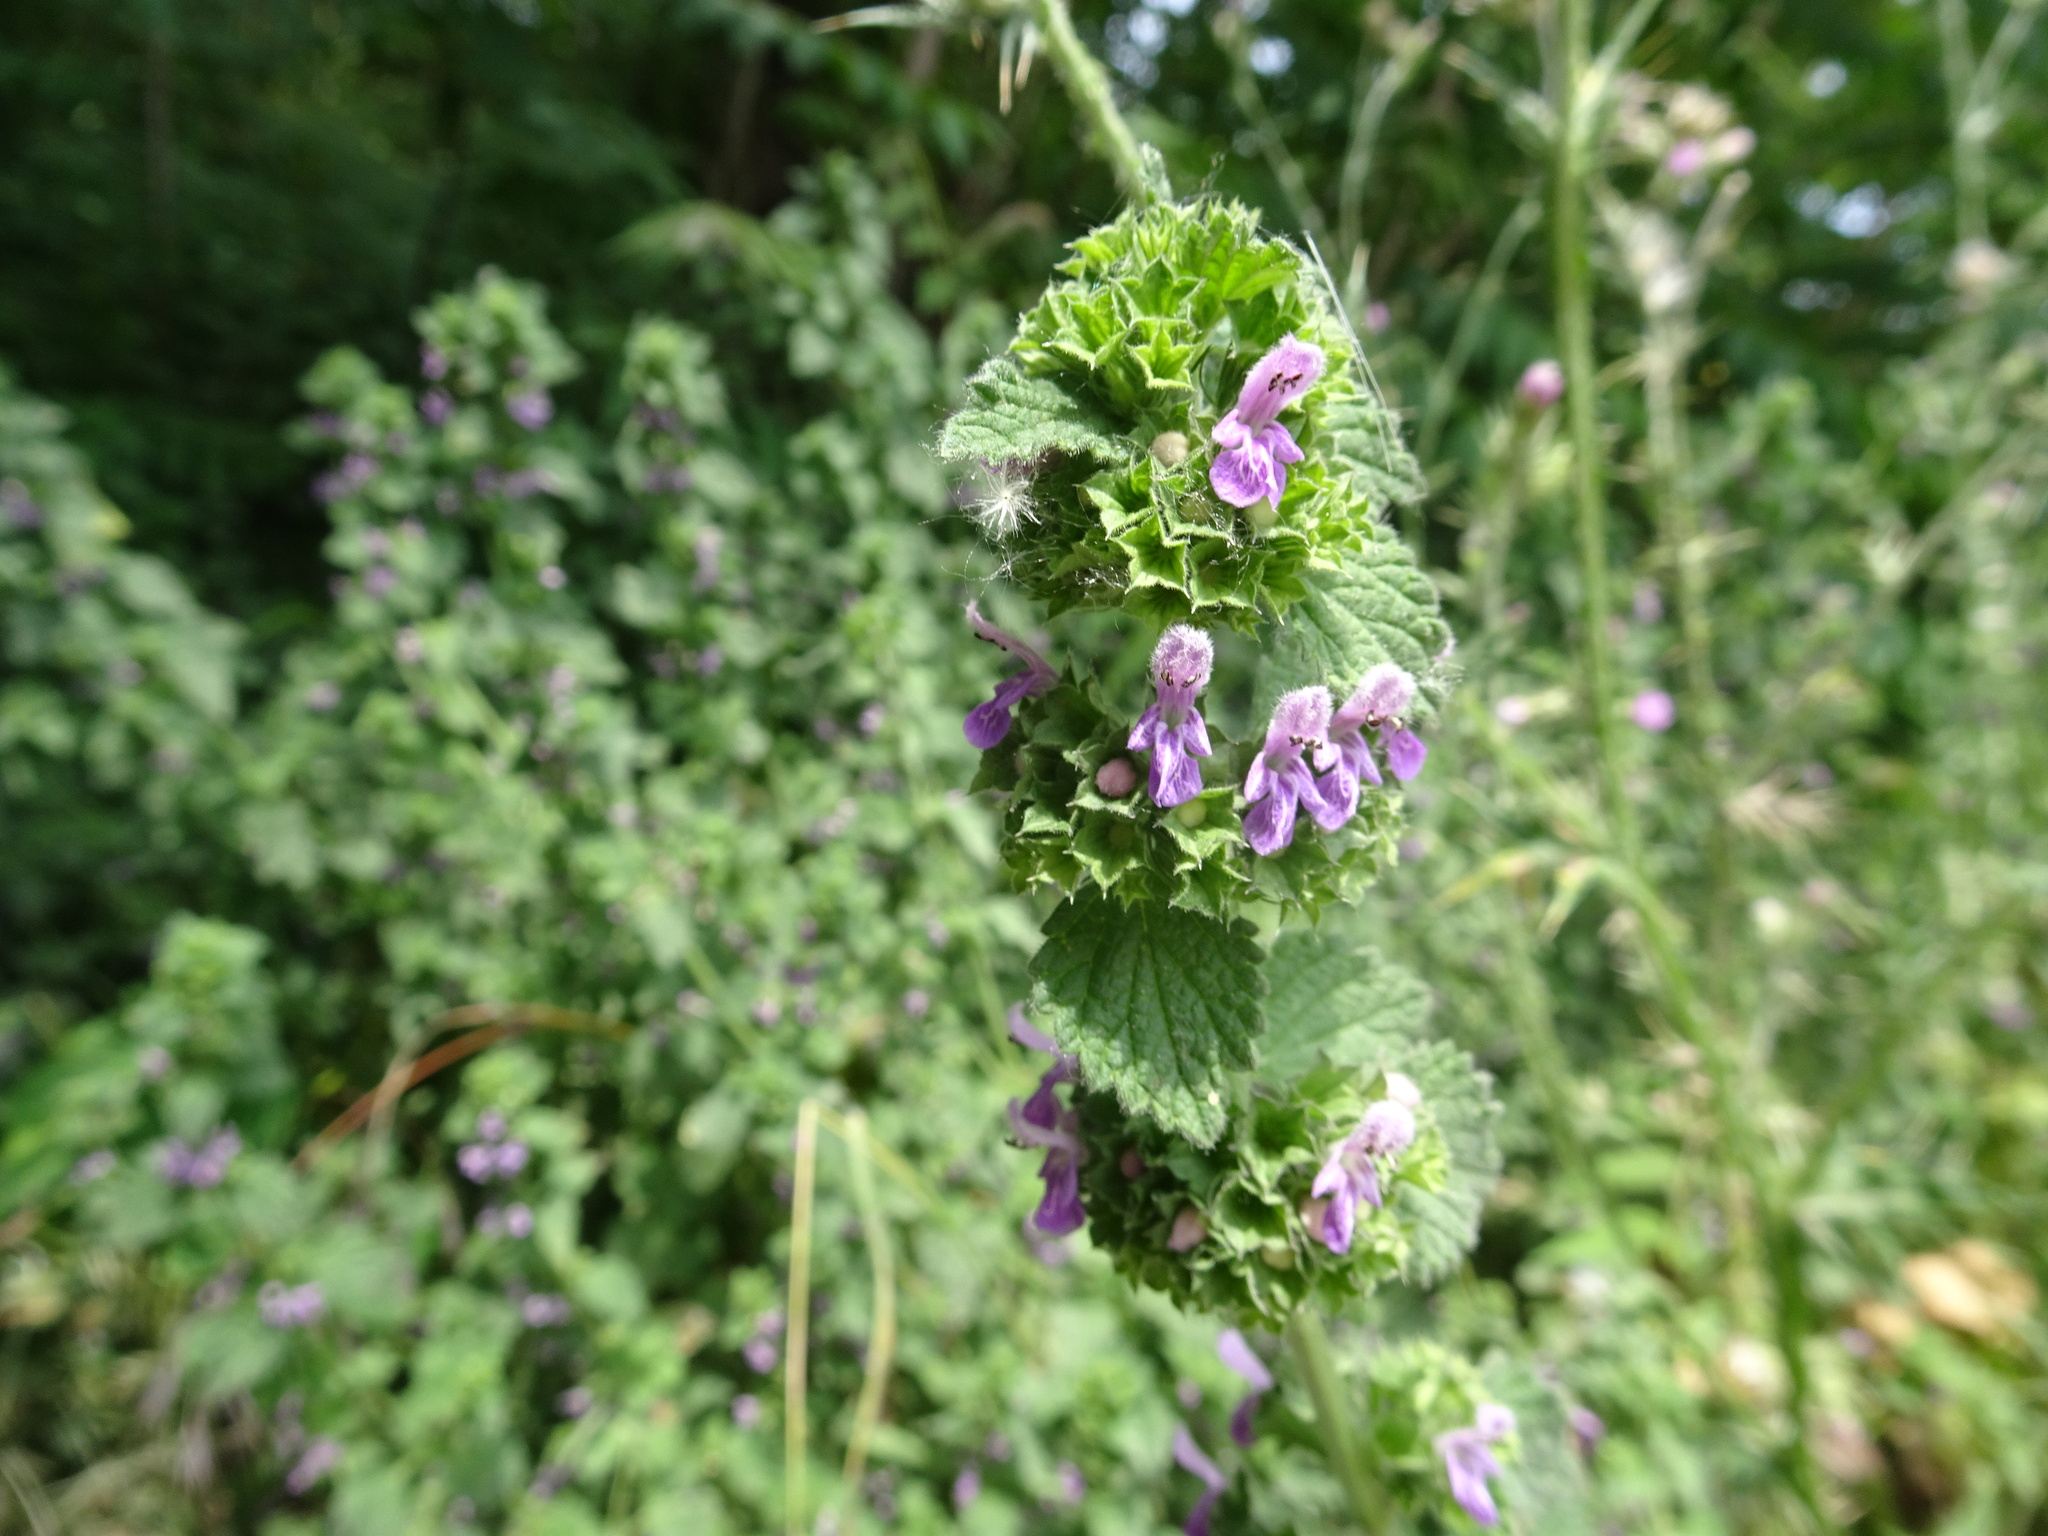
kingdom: Plantae
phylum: Tracheophyta
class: Magnoliopsida
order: Lamiales
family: Lamiaceae
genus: Ballota
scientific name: Ballota nigra
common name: Black horehound
